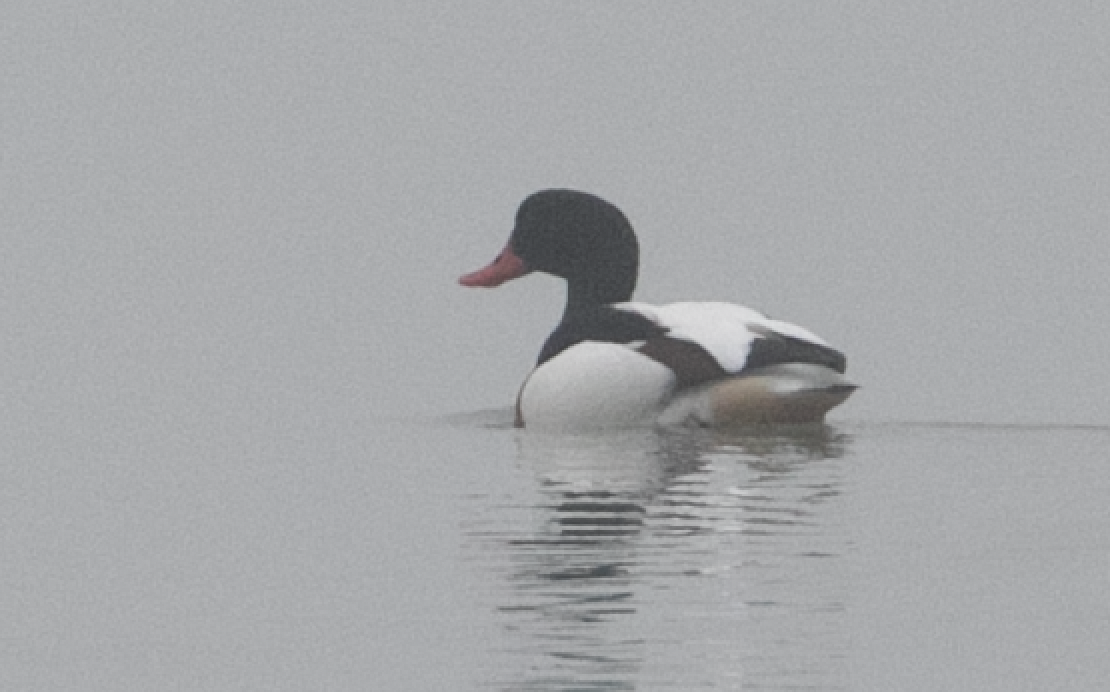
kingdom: Animalia
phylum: Chordata
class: Aves
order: Anseriformes
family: Anatidae
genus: Tadorna
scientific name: Tadorna tadorna
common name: Common shelduck
